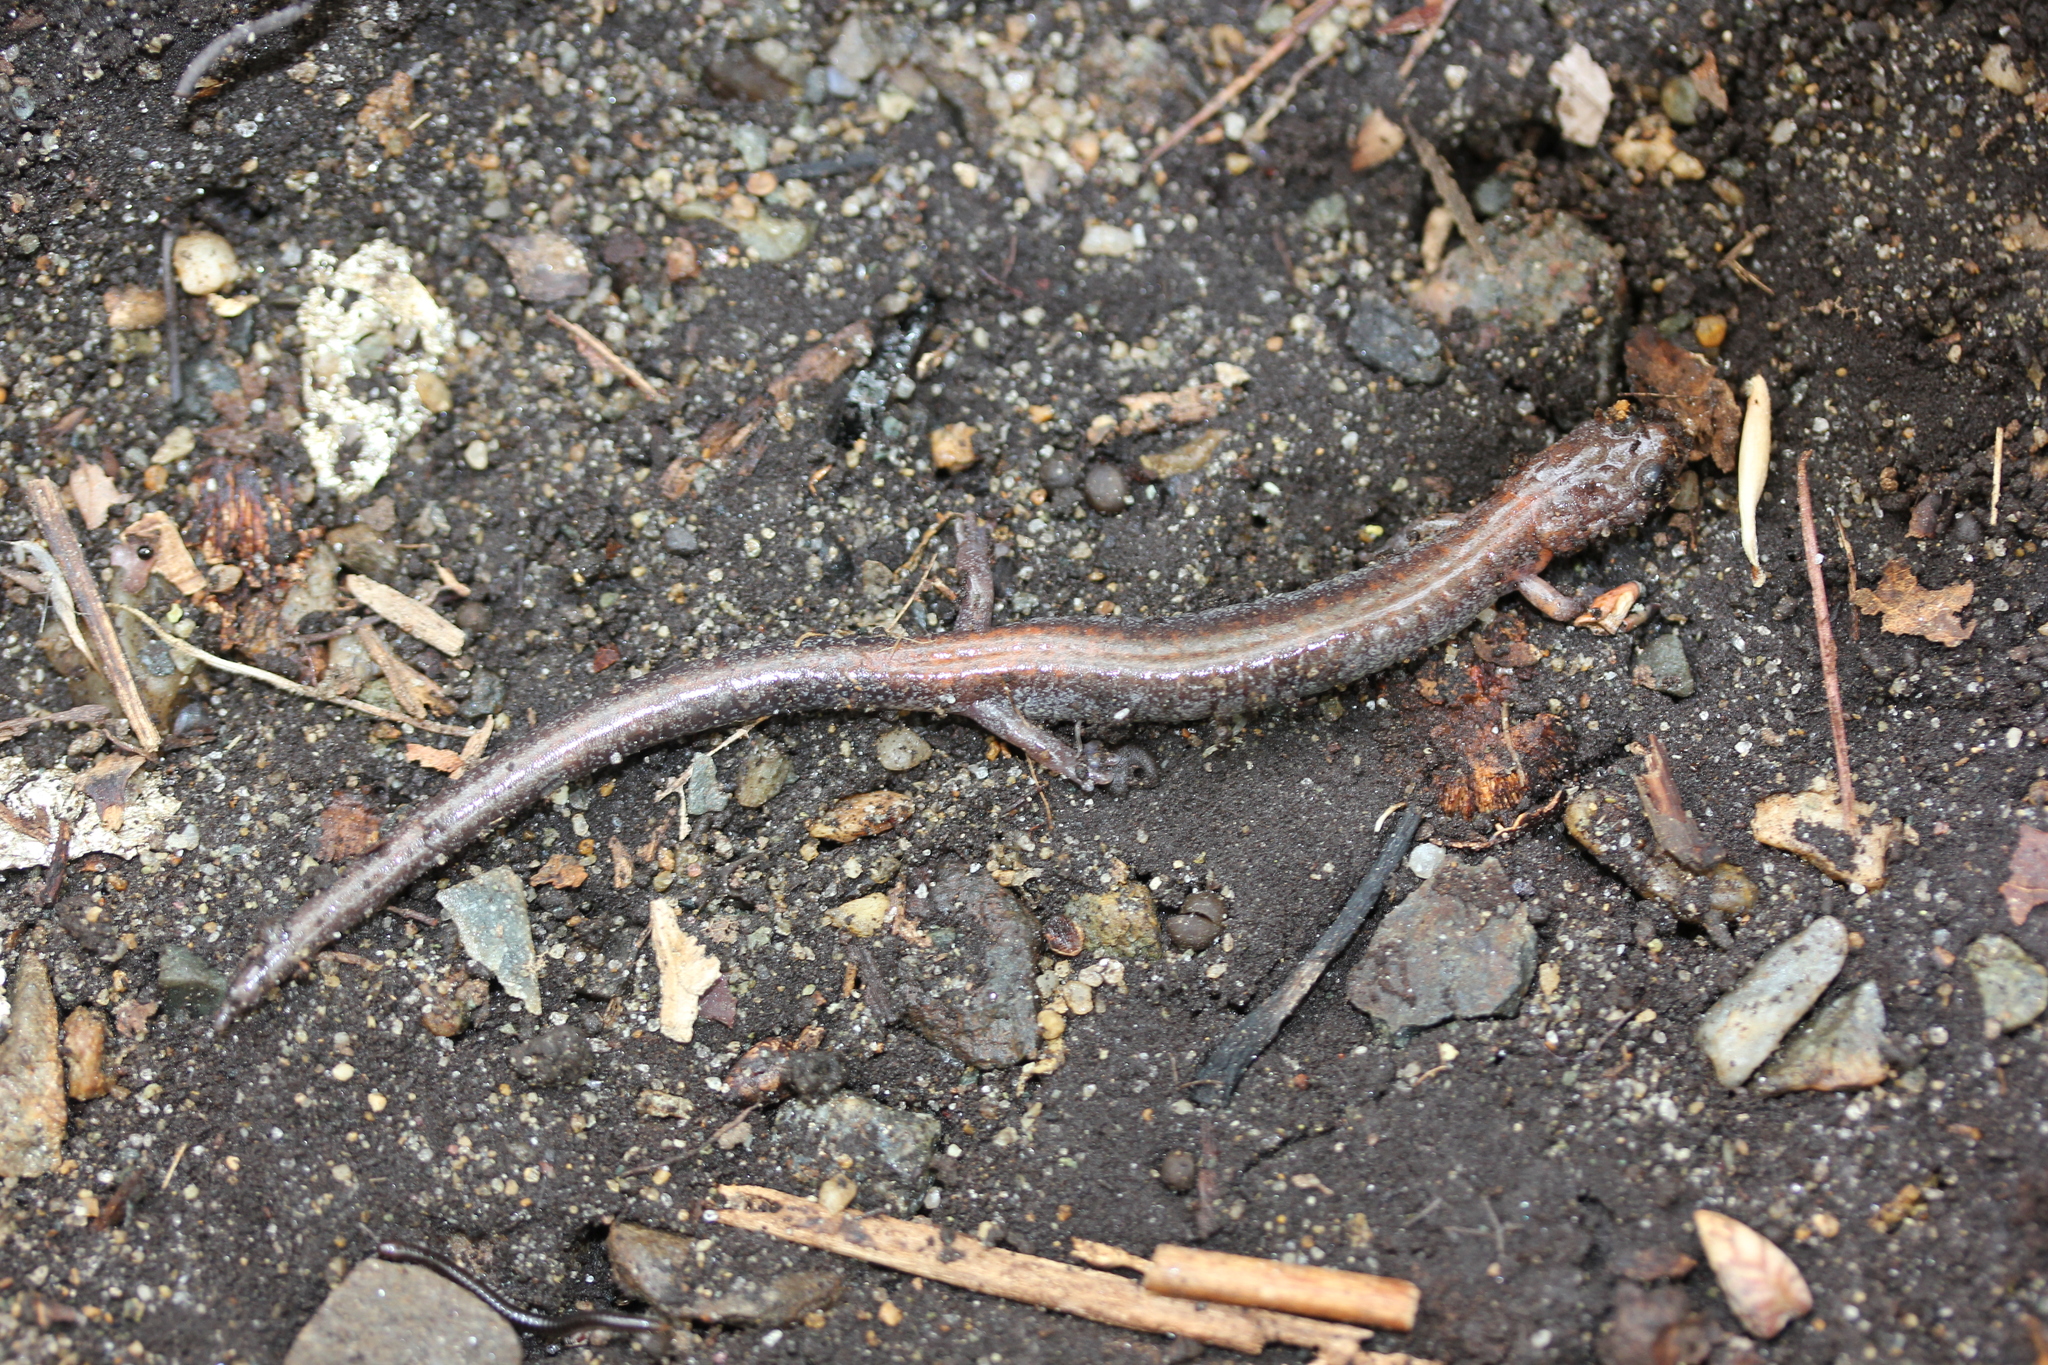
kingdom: Animalia
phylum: Chordata
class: Amphibia
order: Caudata
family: Plethodontidae
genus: Plethodon
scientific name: Plethodon cinereus
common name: Redback salamander
